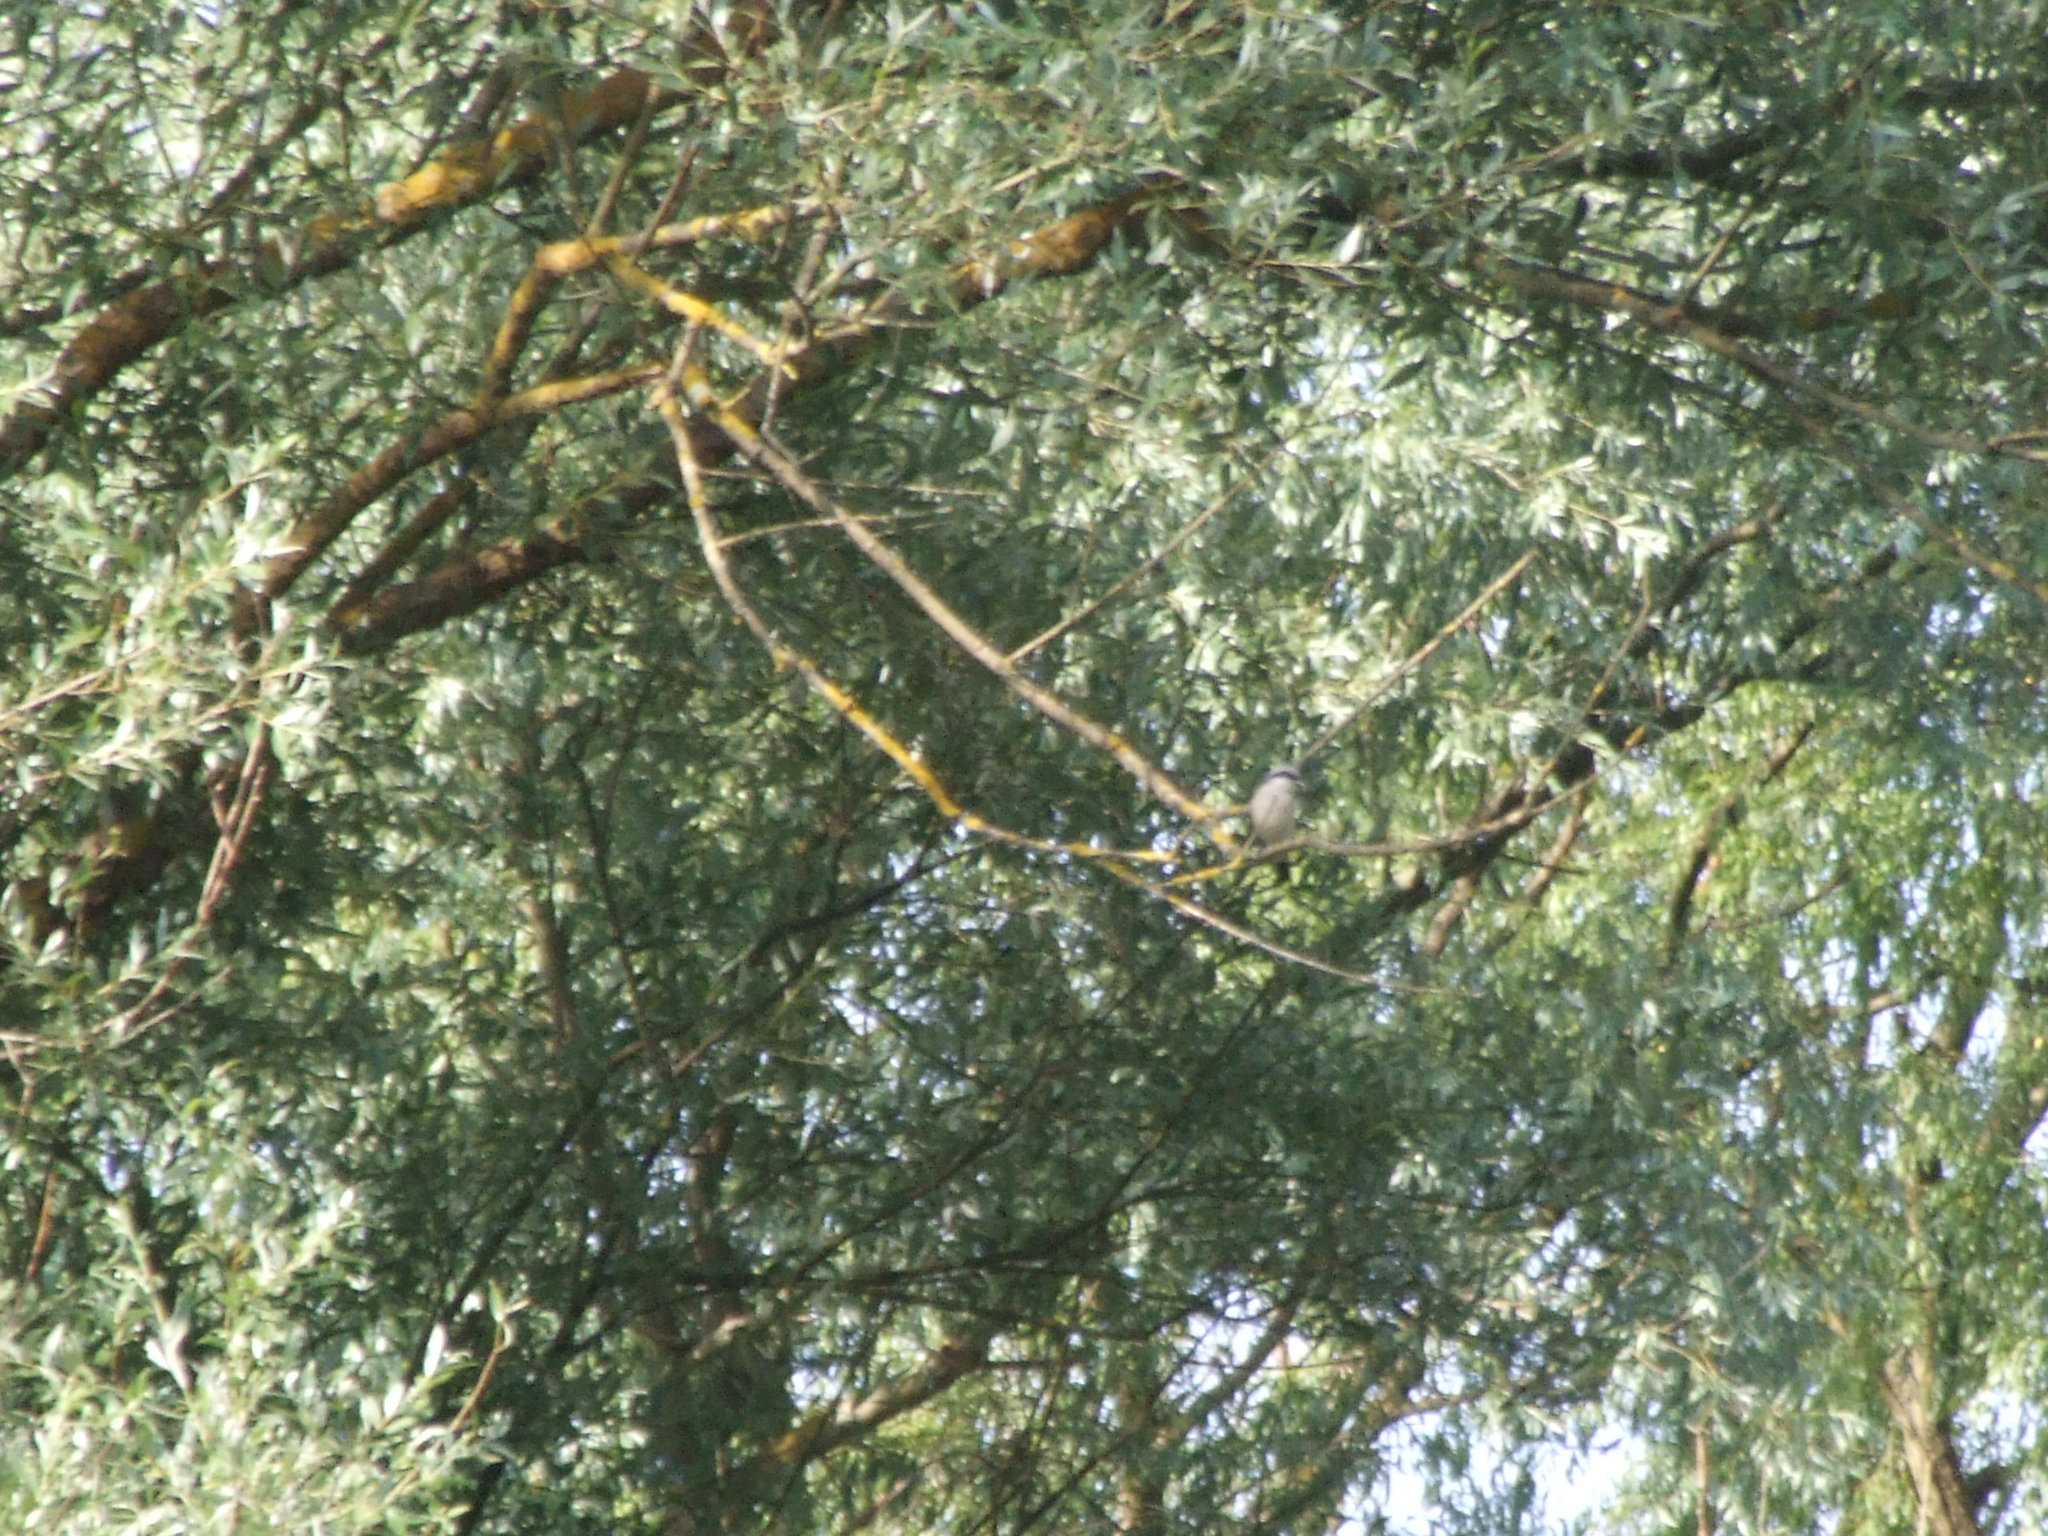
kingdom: Animalia
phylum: Chordata
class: Aves
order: Passeriformes
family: Laniidae
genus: Lanius
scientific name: Lanius collurio
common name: Red-backed shrike
